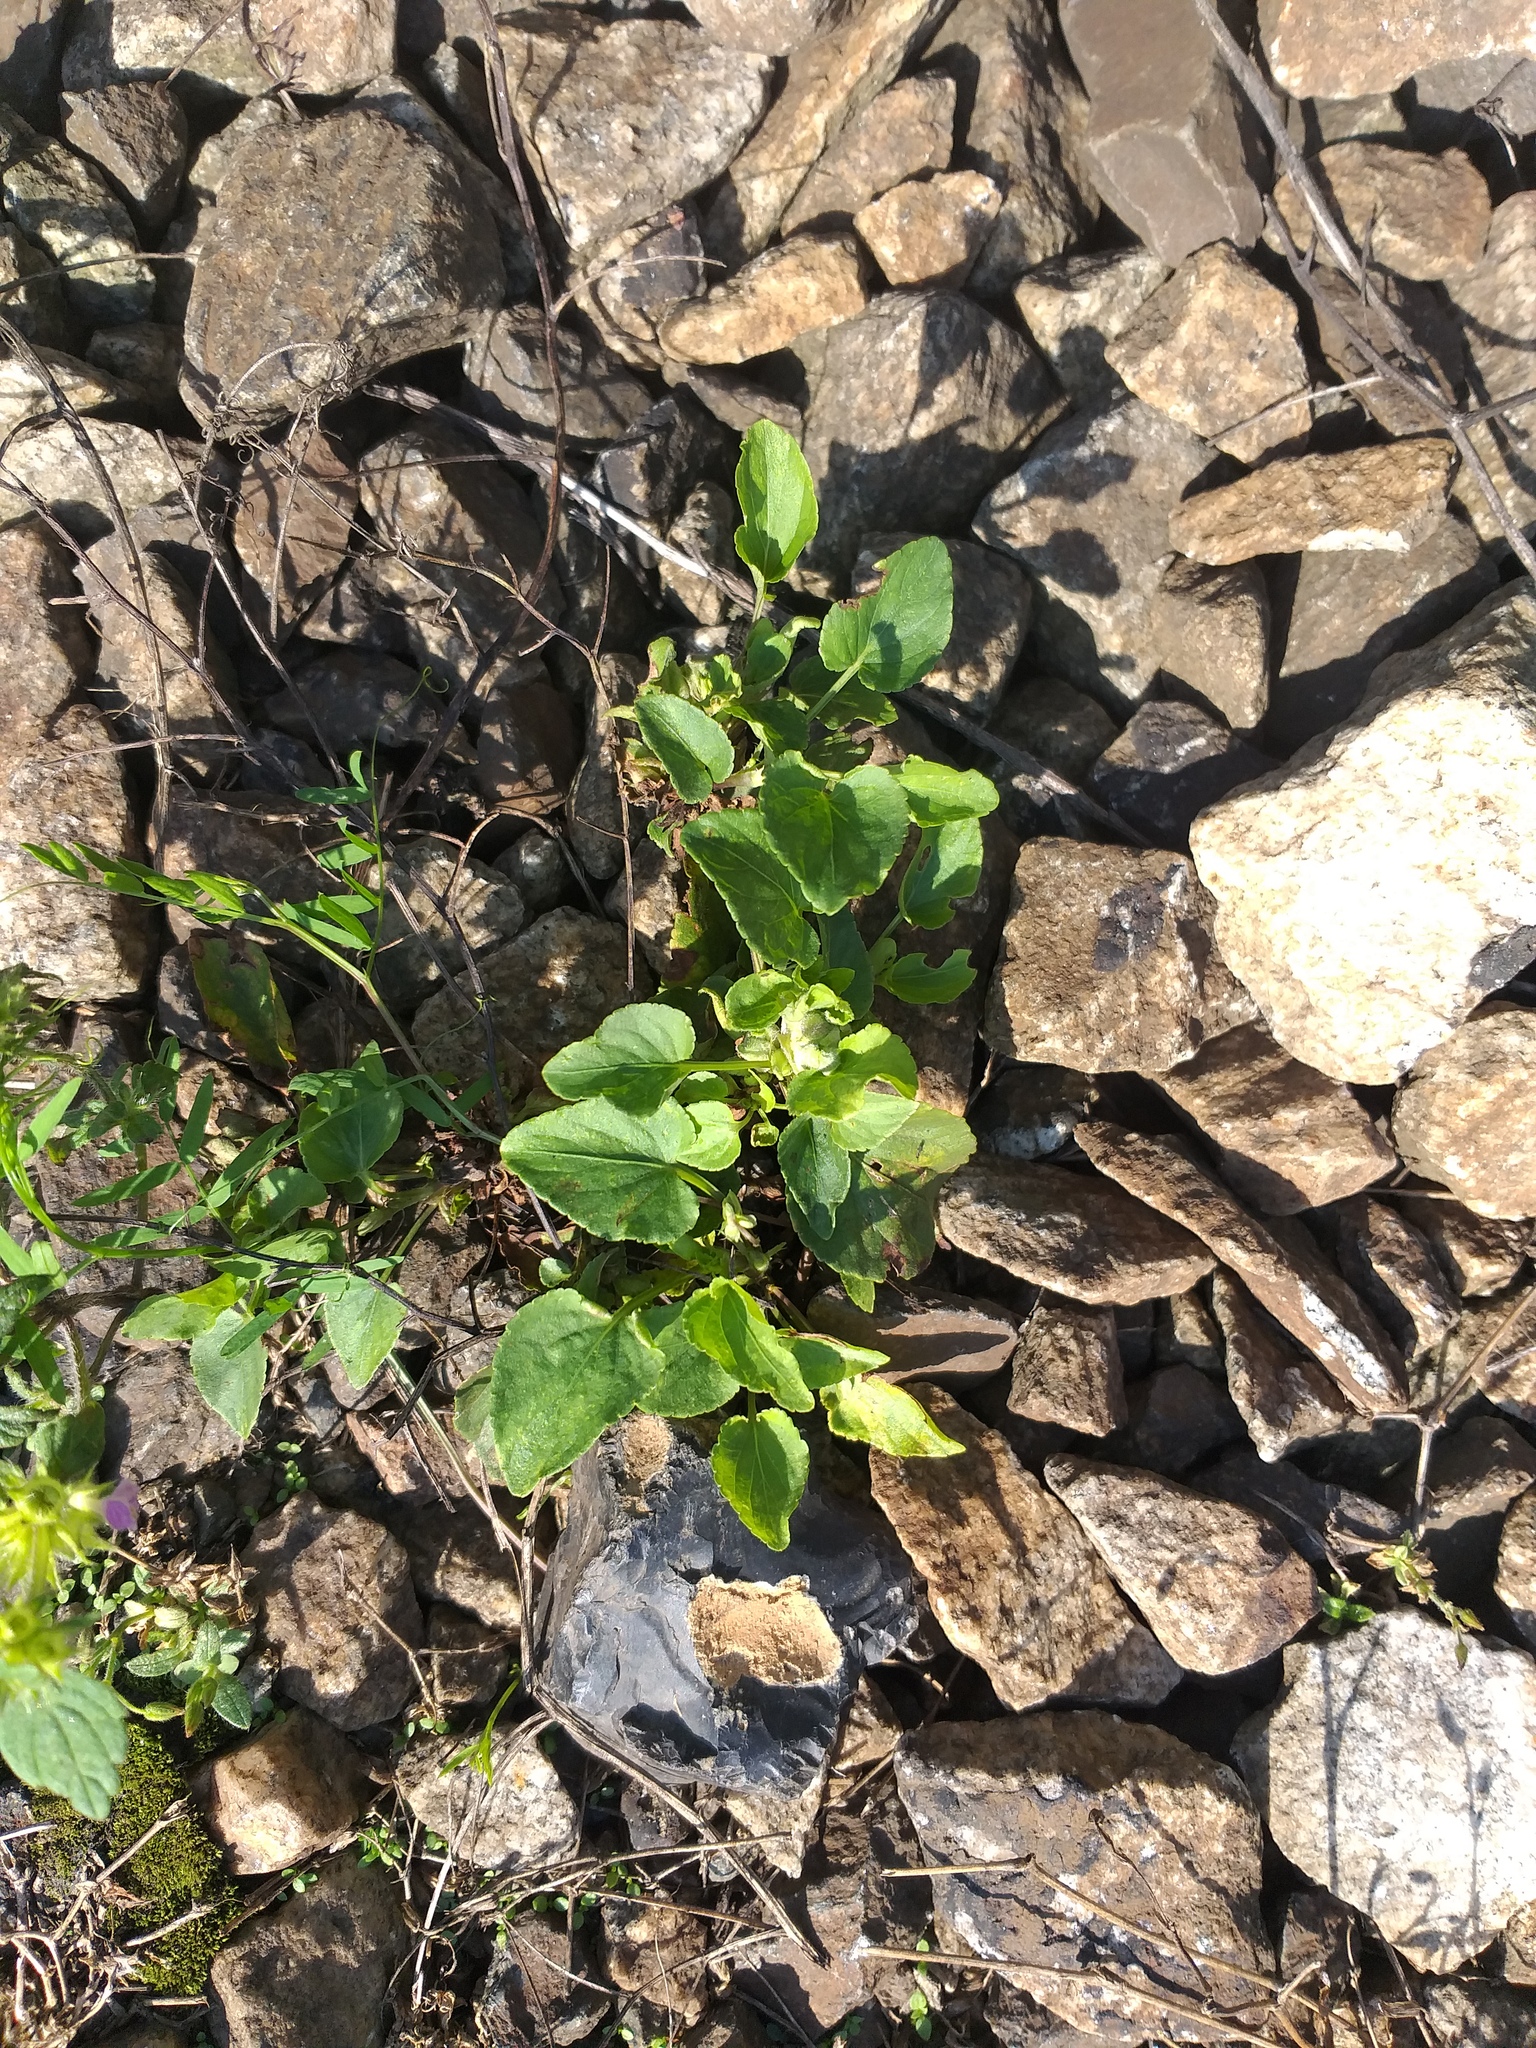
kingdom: Plantae
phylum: Tracheophyta
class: Magnoliopsida
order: Malpighiales
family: Violaceae
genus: Viola
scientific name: Viola canina
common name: Heath dog-violet
